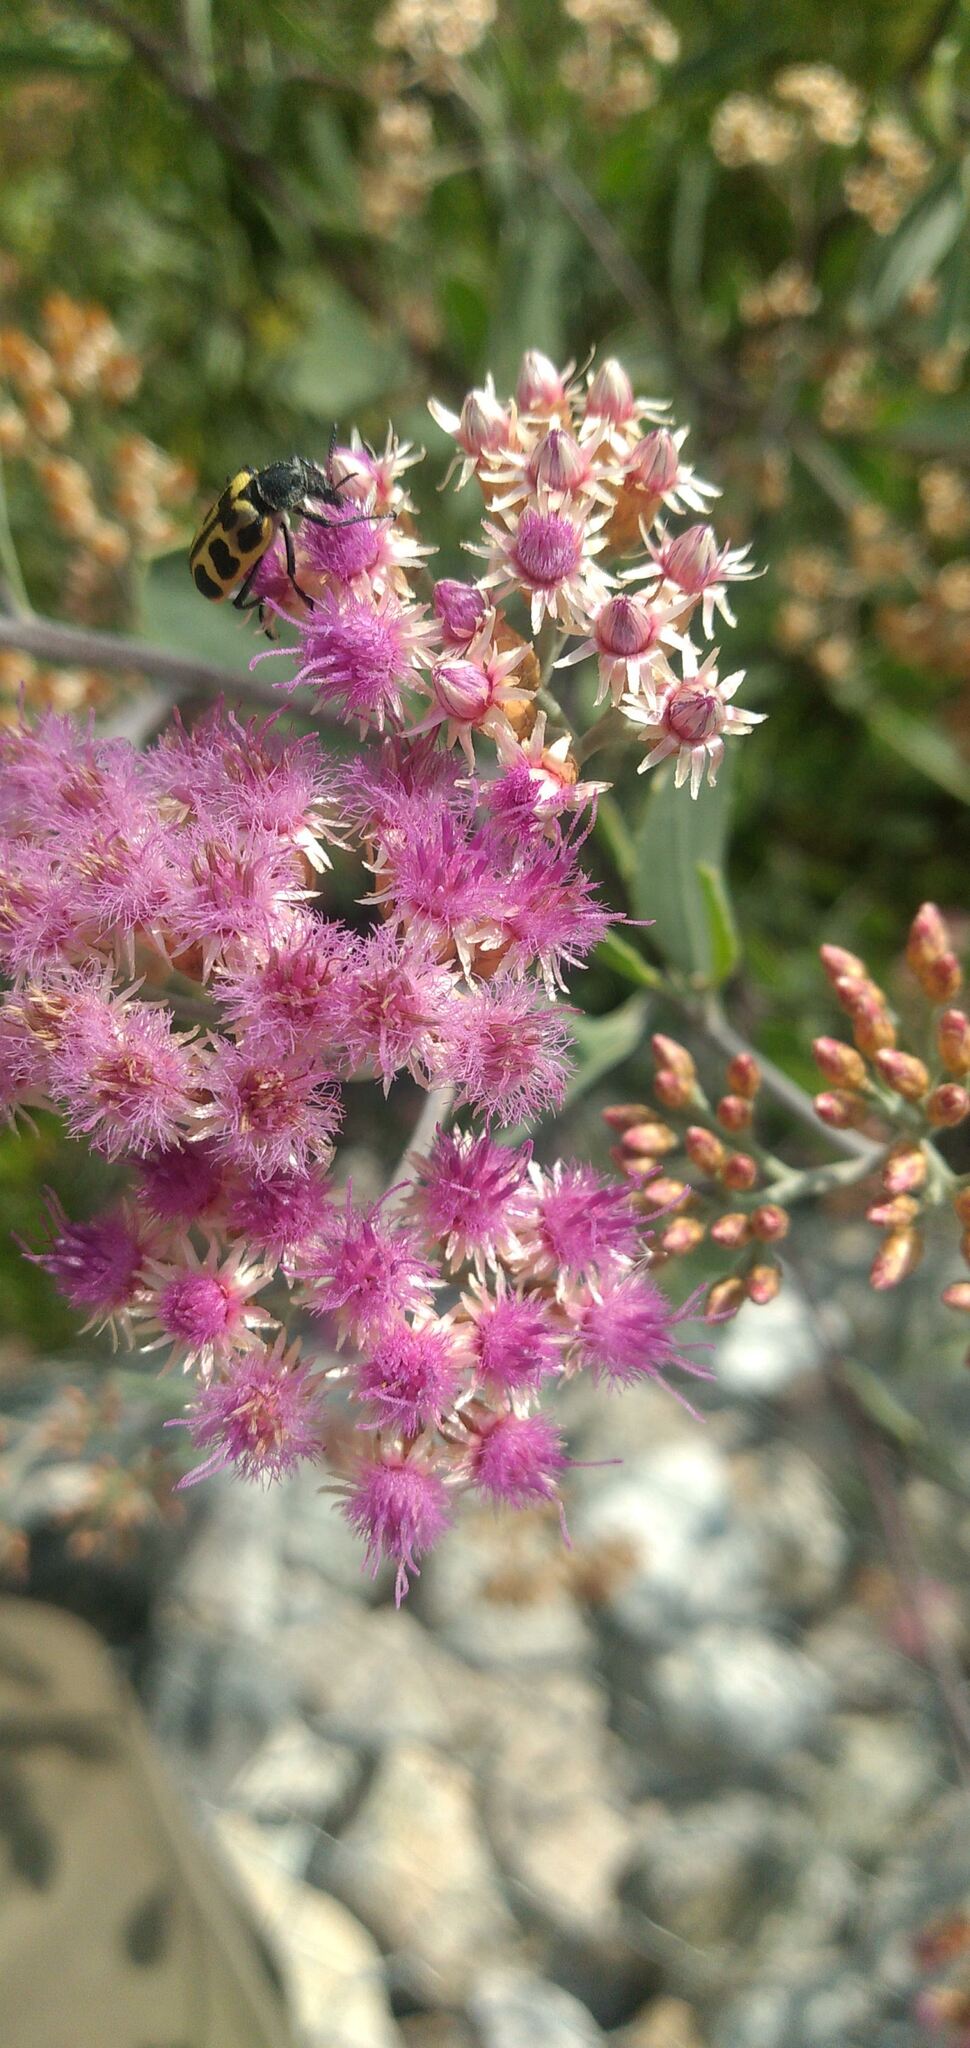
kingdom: Animalia
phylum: Arthropoda
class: Insecta
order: Coleoptera
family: Melyridae
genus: Astylus
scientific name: Astylus atromaculatus
